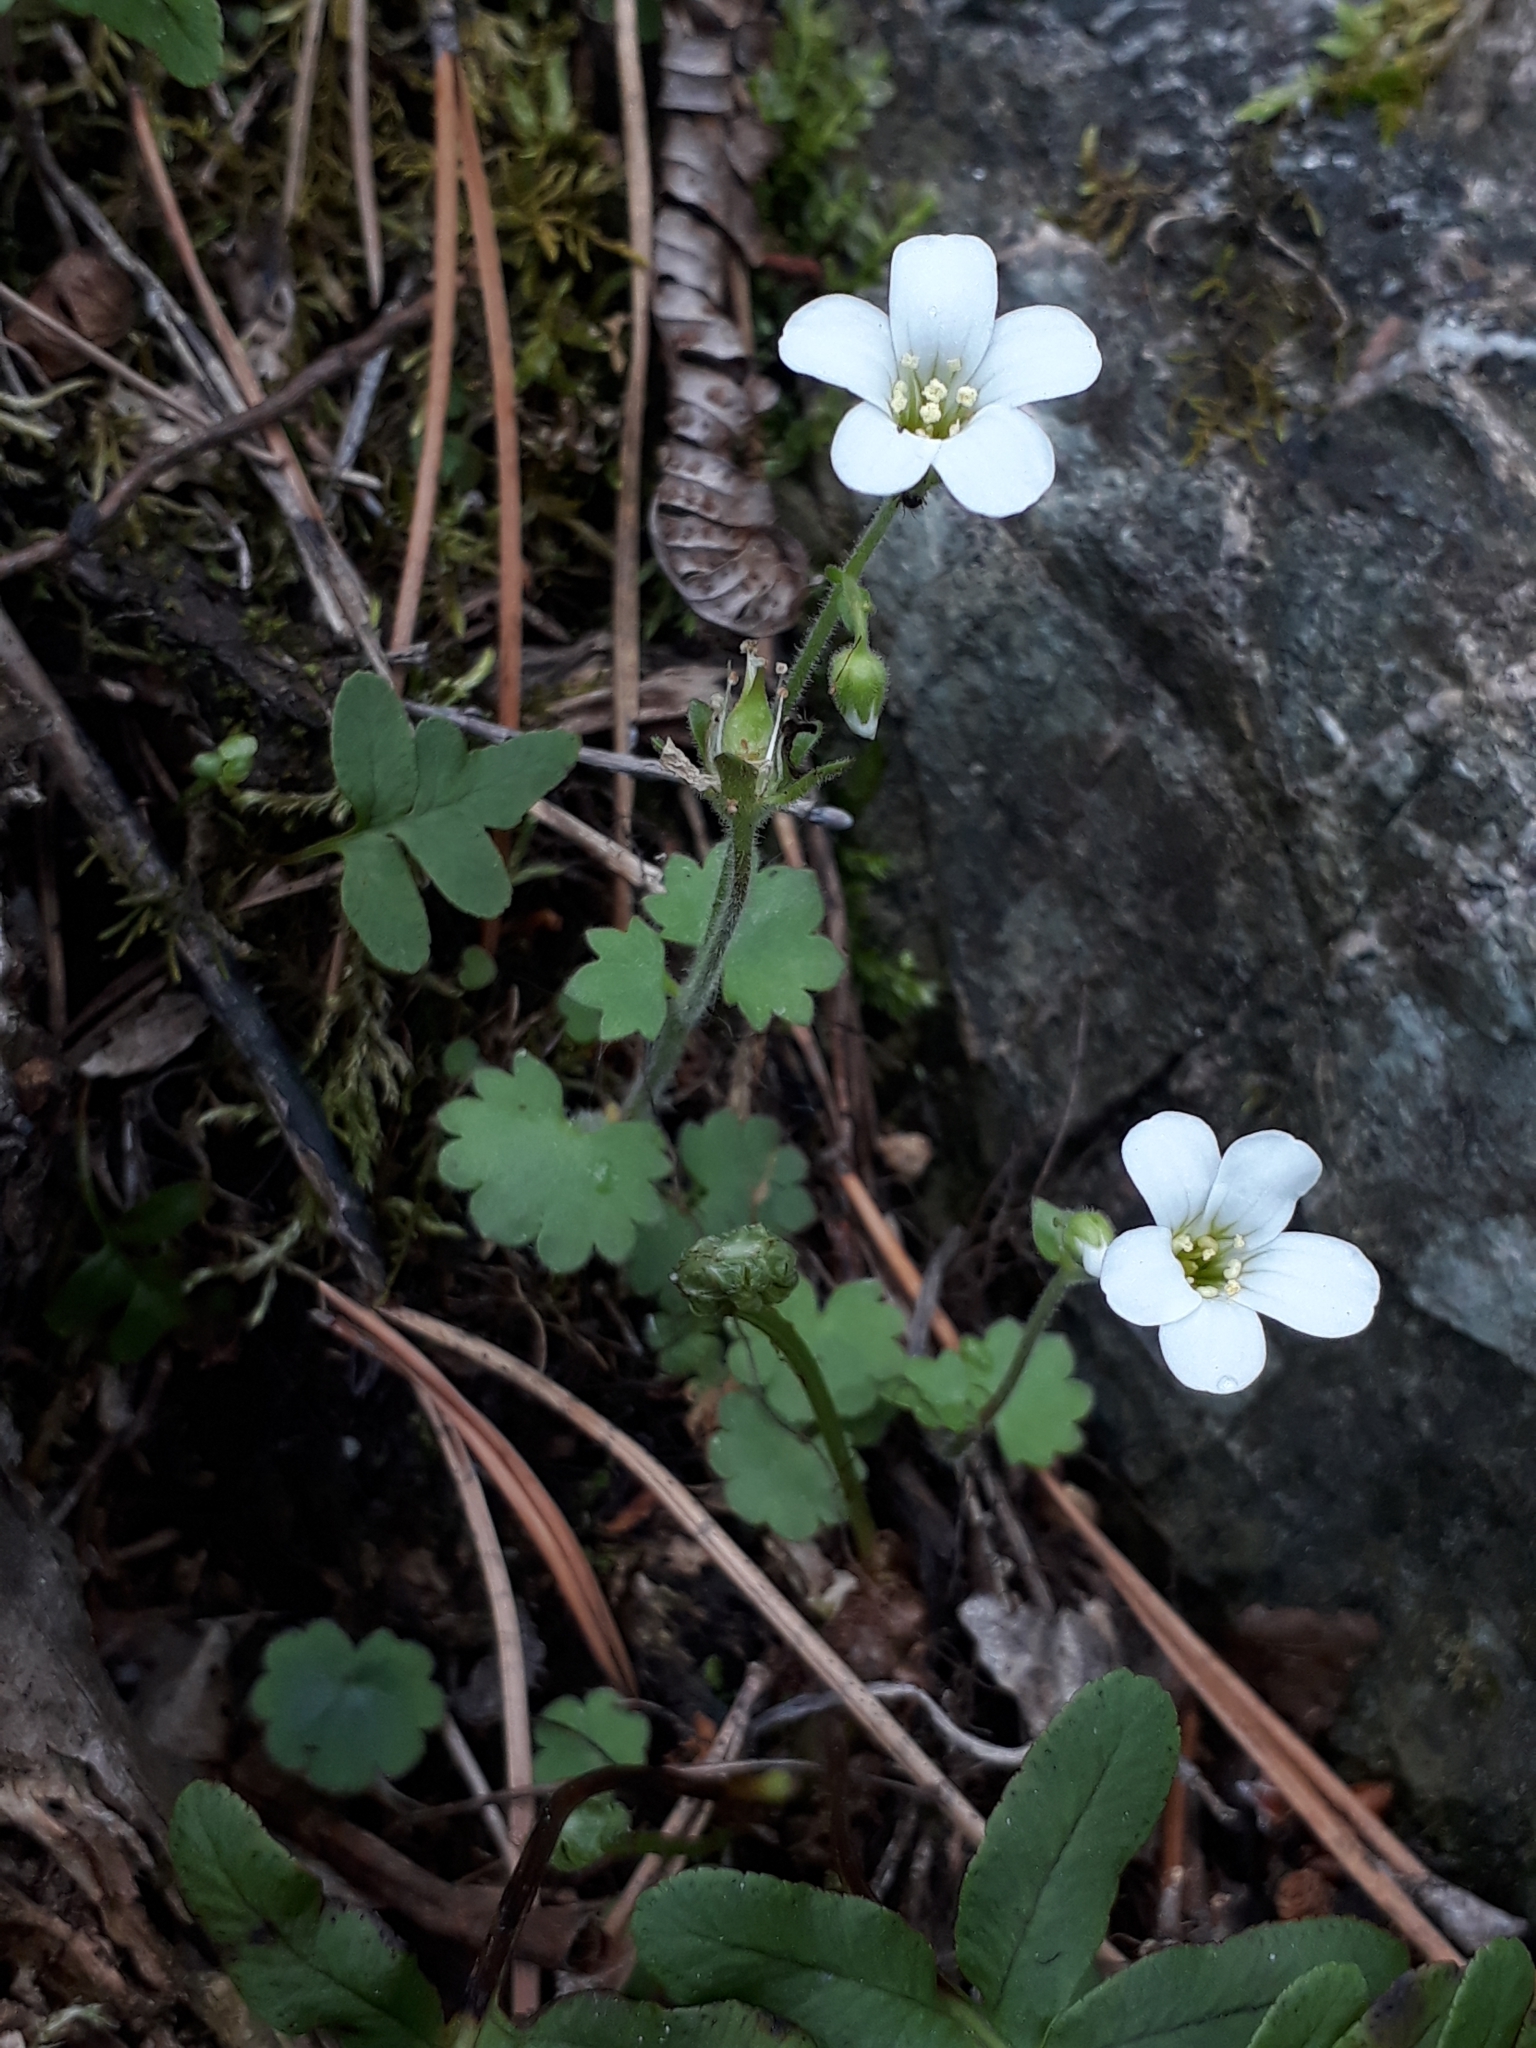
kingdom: Plantae
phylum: Tracheophyta
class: Magnoliopsida
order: Saxifragales
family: Saxifragaceae
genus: Saxifraga
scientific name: Saxifraga sibirica
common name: Siberian saxifrage
